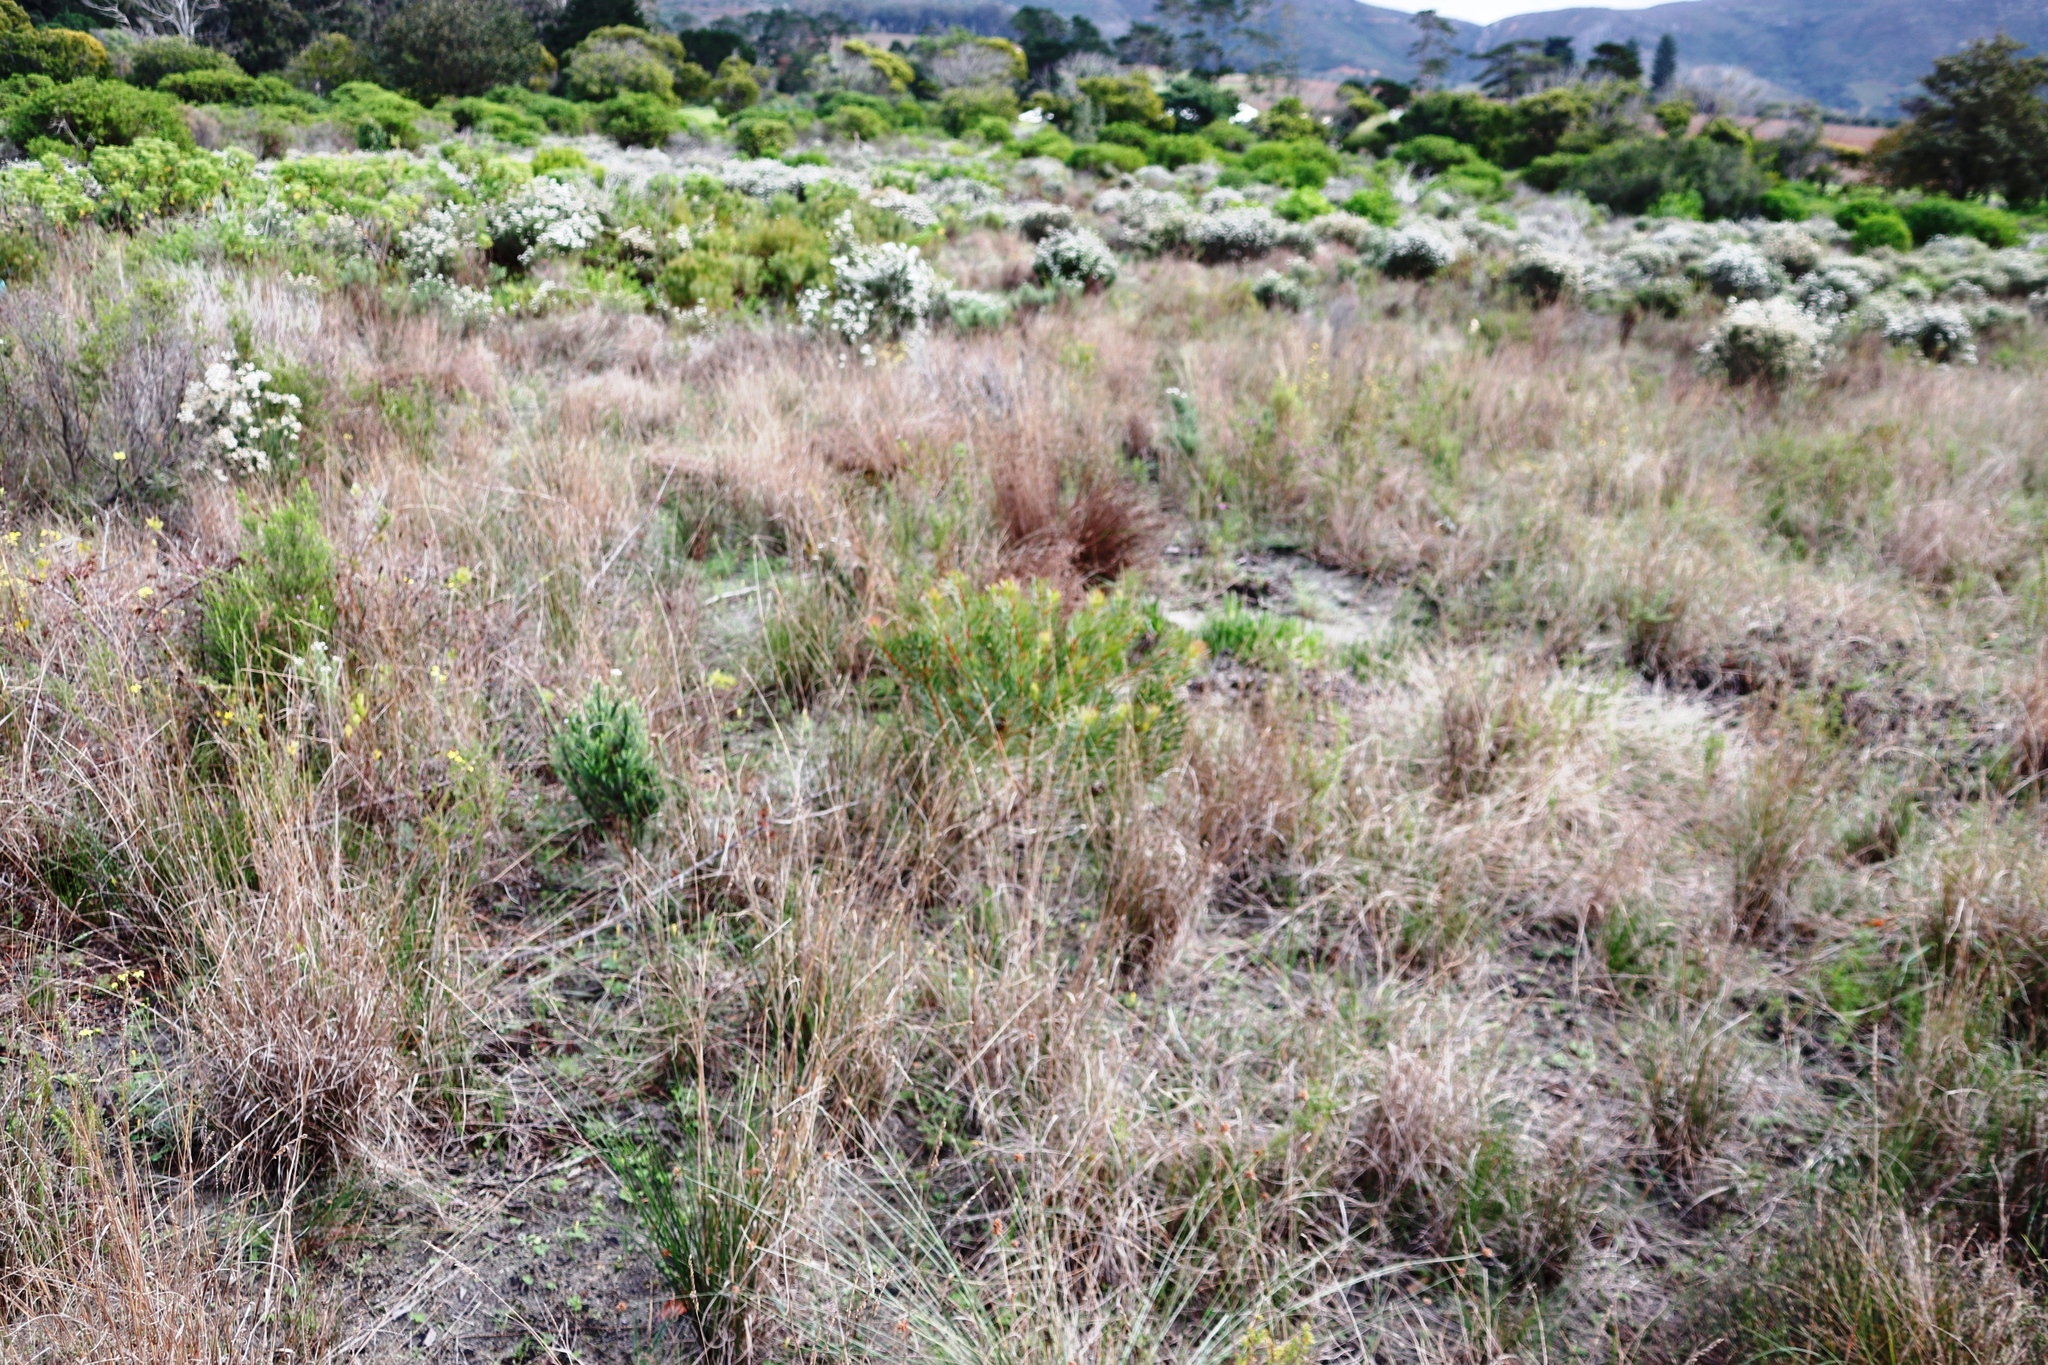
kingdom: Plantae
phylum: Tracheophyta
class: Magnoliopsida
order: Proteales
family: Proteaceae
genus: Protea
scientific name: Protea scolymocephala
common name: Thistle sugarbush
